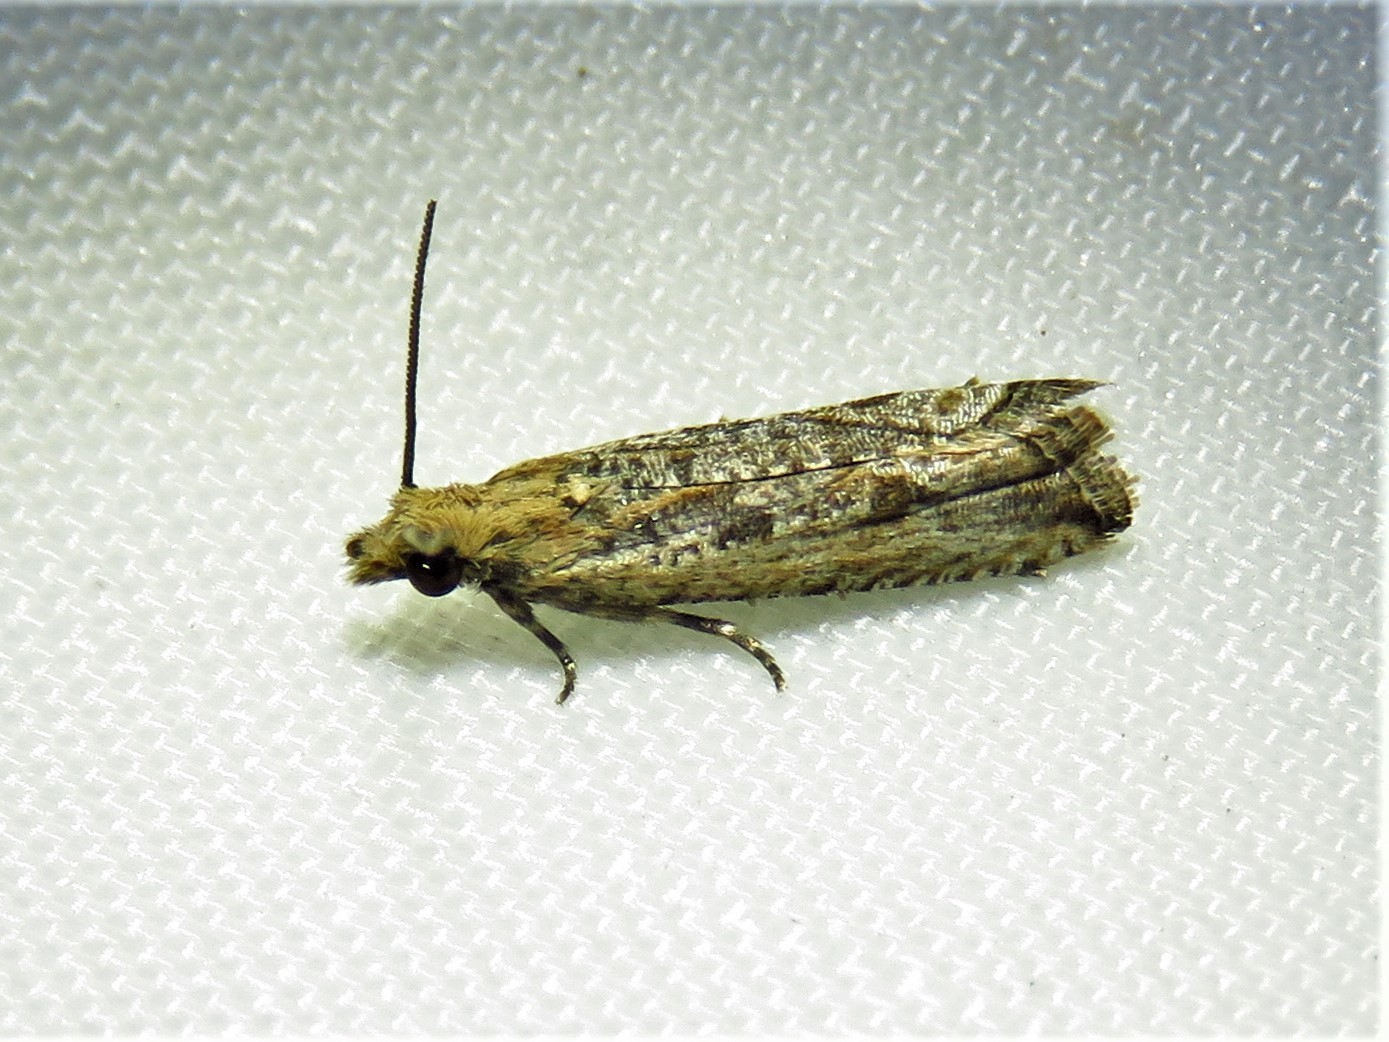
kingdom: Animalia
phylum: Arthropoda
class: Insecta
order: Lepidoptera
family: Tortricidae
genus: Bactra
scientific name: Bactra verutana
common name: Javelin moth
